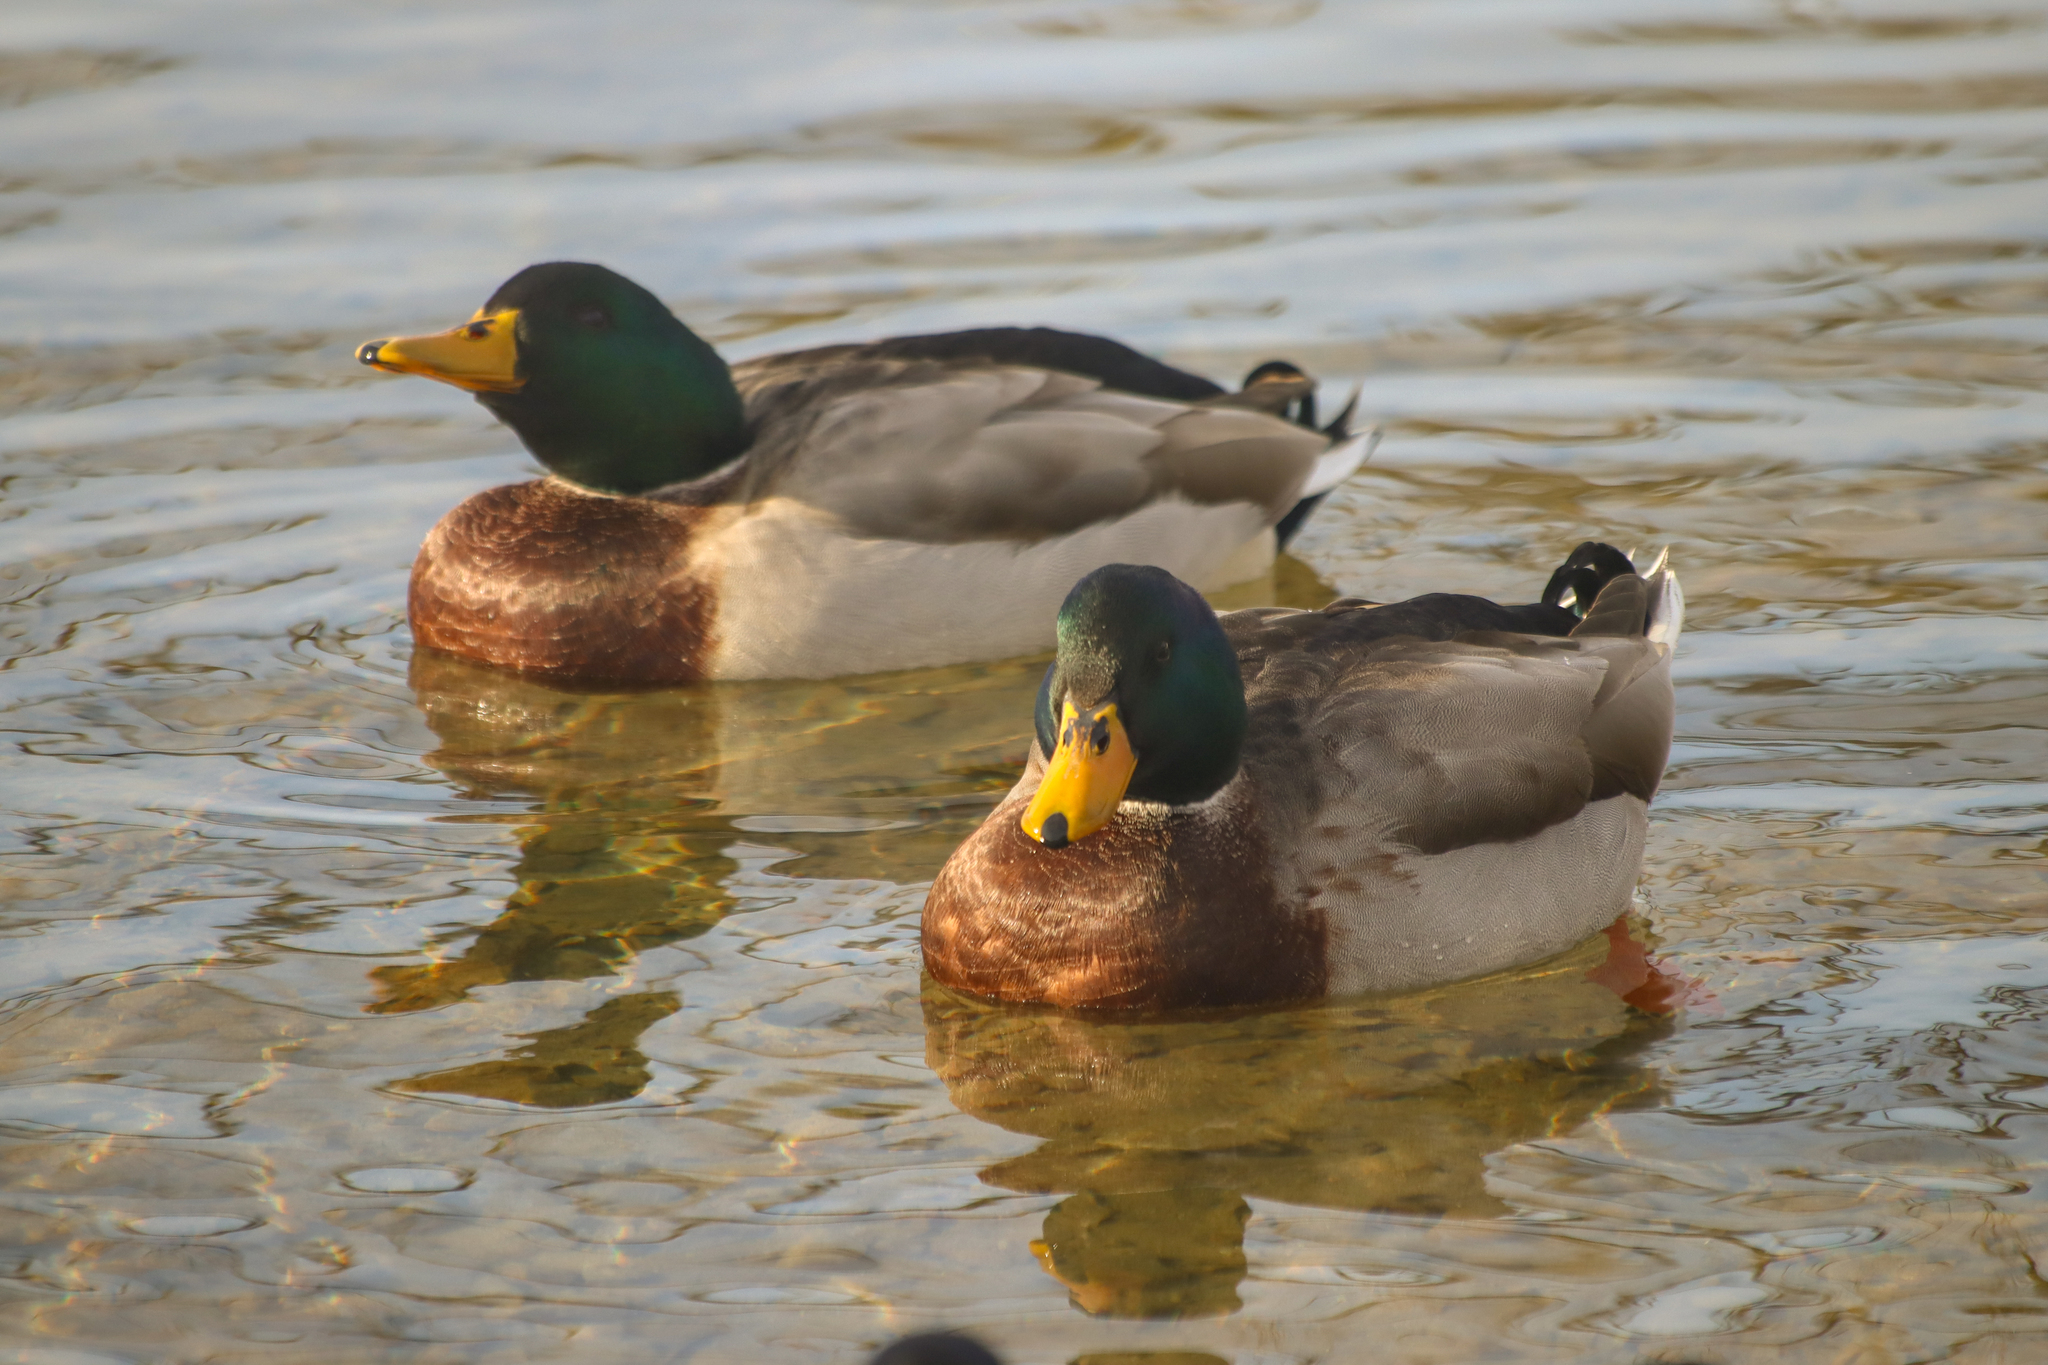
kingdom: Animalia
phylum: Chordata
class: Aves
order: Anseriformes
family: Anatidae
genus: Anas
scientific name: Anas platyrhynchos
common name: Mallard
